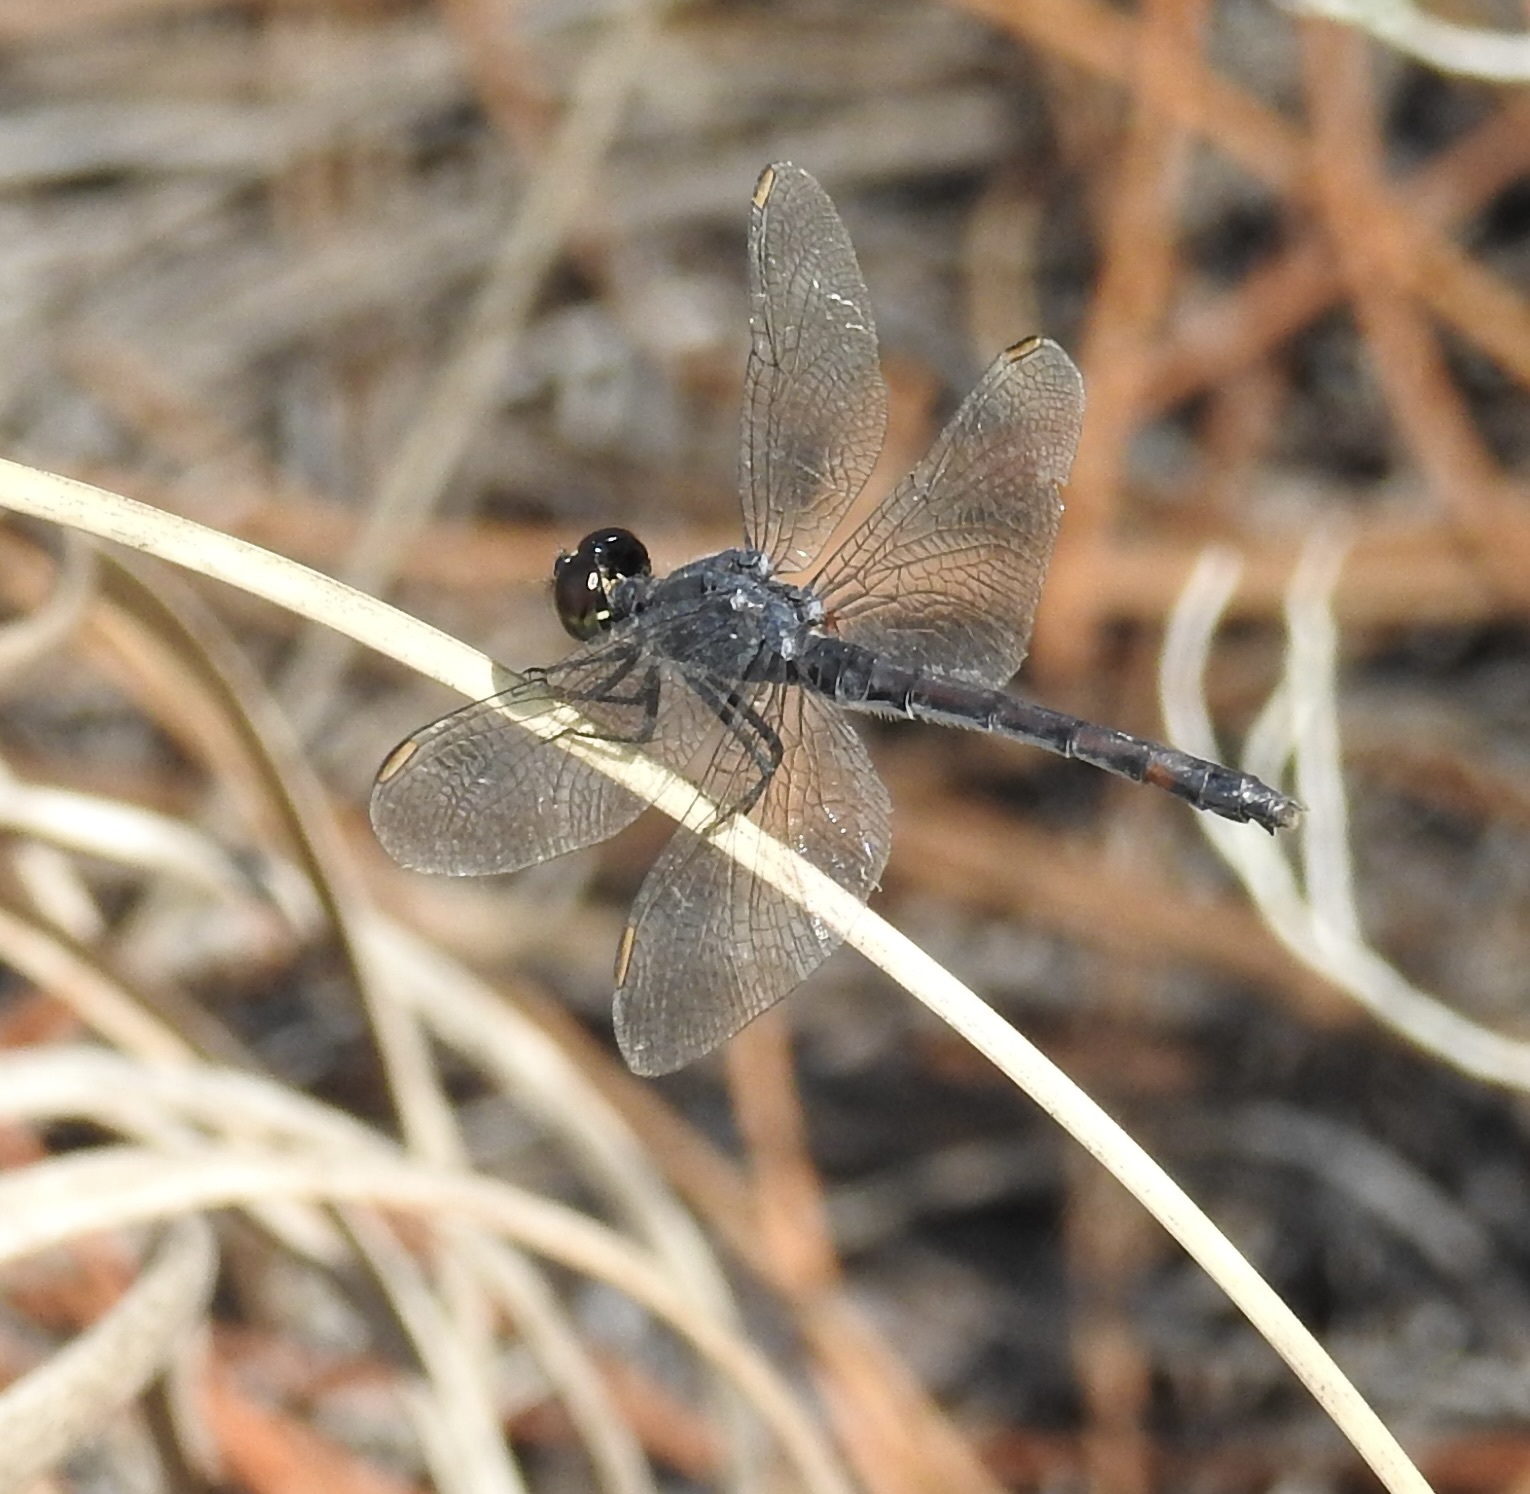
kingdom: Animalia
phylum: Arthropoda
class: Insecta
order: Odonata
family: Libellulidae
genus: Erythrodiplax
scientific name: Erythrodiplax berenice
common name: Seaside dragonlet
